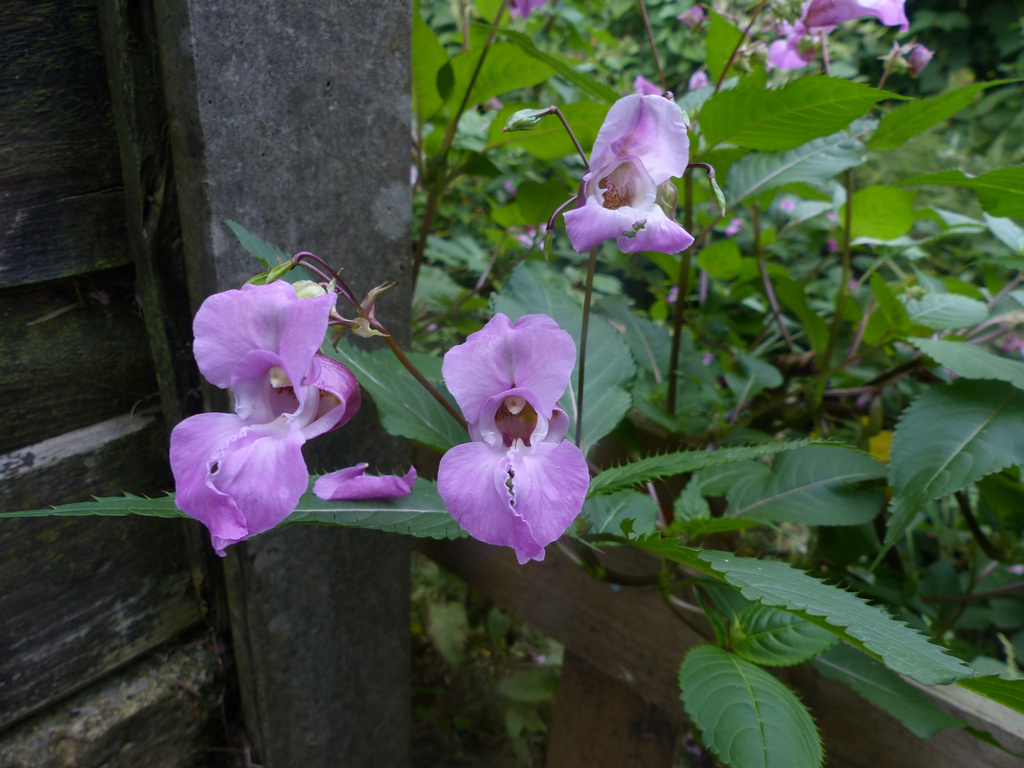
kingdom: Plantae
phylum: Tracheophyta
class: Magnoliopsida
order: Ericales
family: Balsaminaceae
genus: Impatiens
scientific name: Impatiens glandulifera
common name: Himalayan balsam
